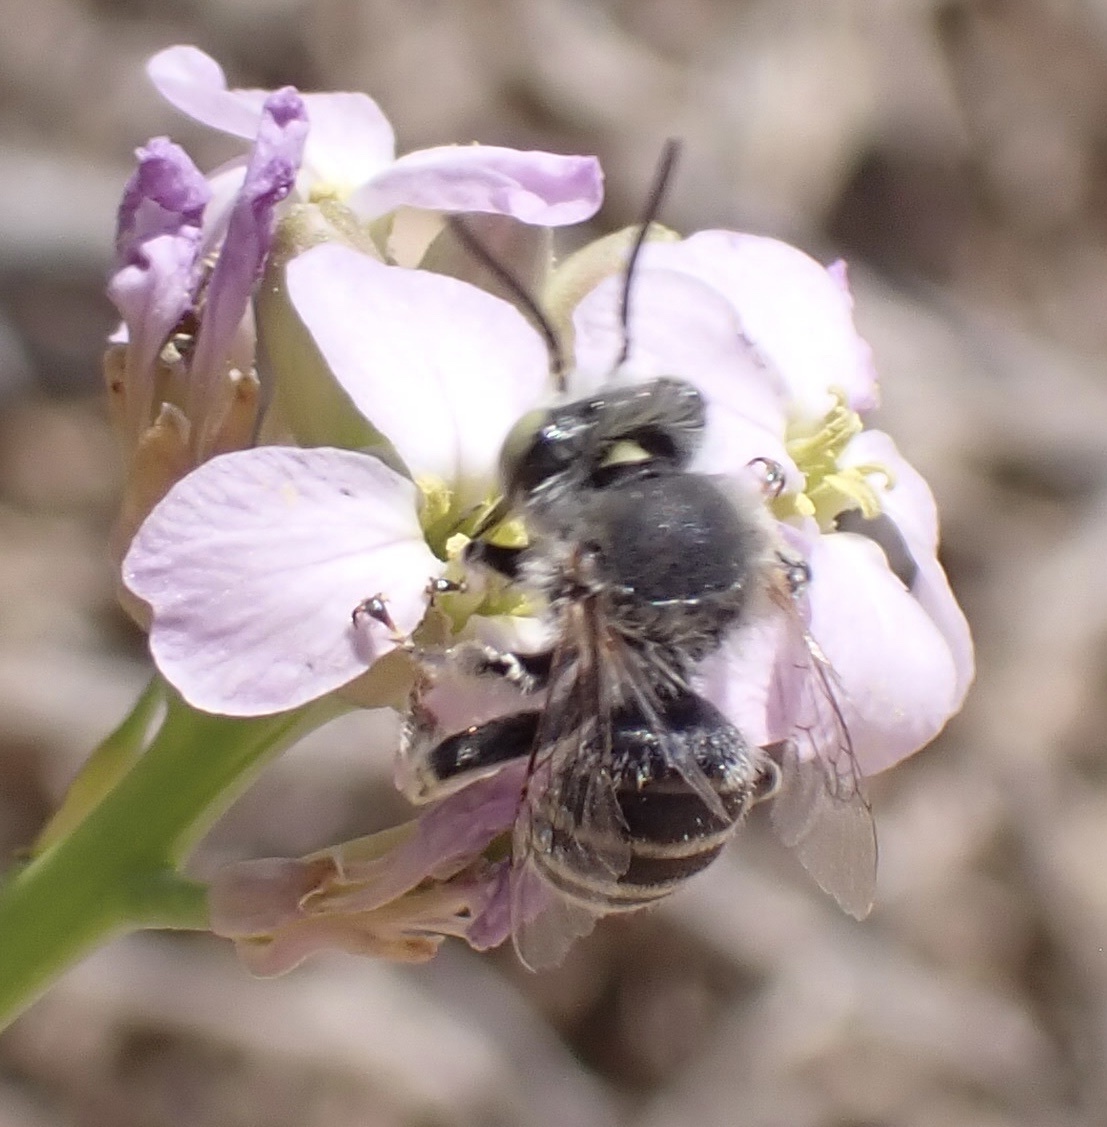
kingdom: Animalia
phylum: Arthropoda
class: Insecta
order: Hymenoptera
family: Apidae
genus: Anthophora
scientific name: Anthophora bimaculata
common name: Green-eyed flower bee
